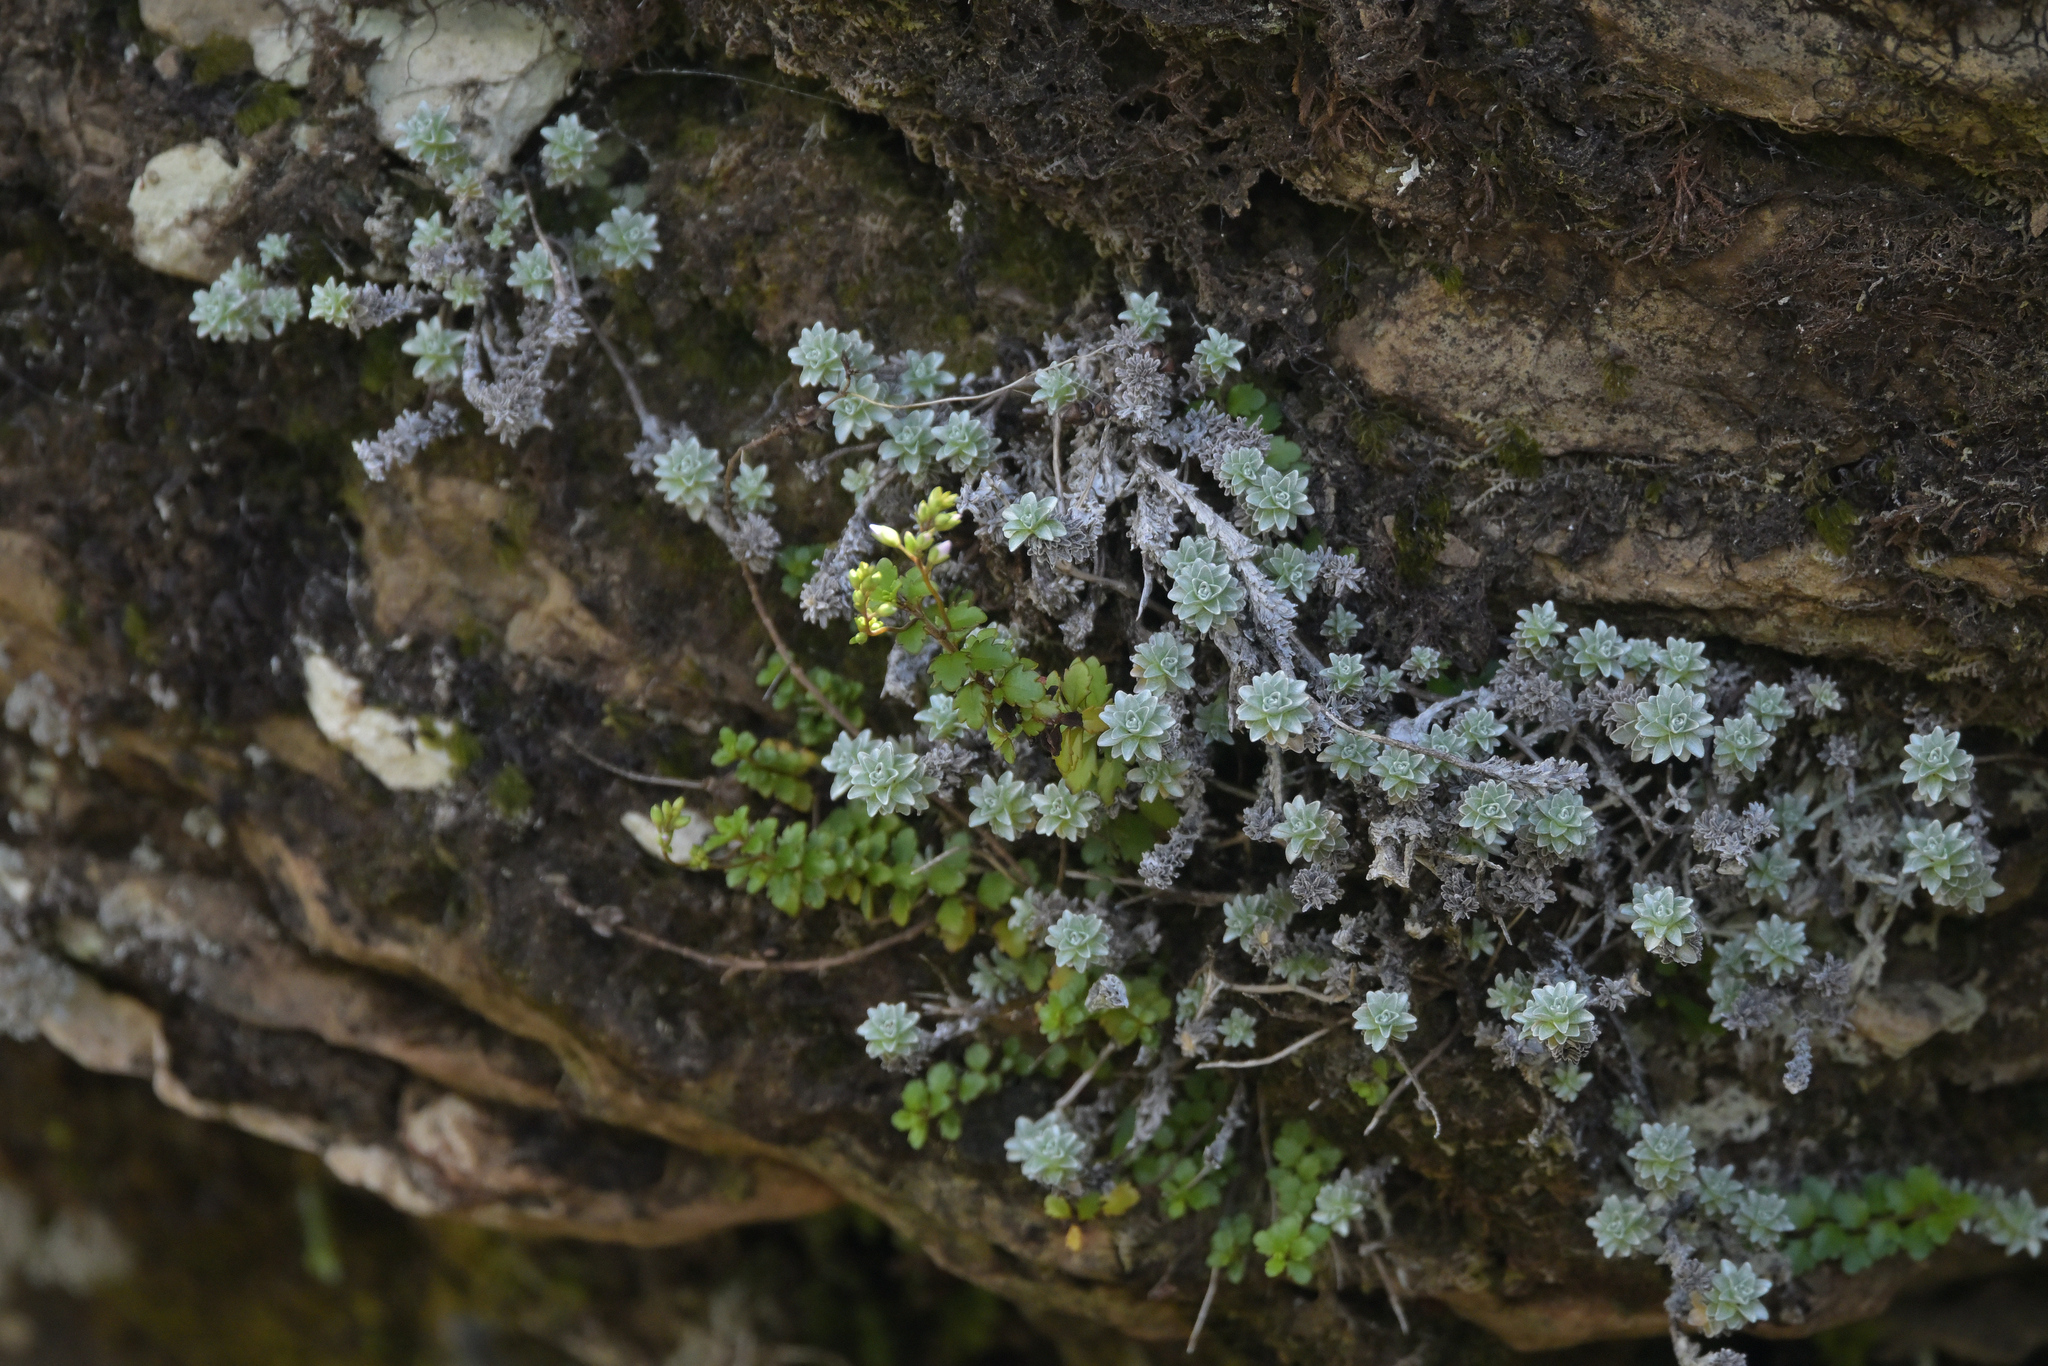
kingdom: Plantae
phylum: Tracheophyta
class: Magnoliopsida
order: Lamiales
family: Plantaginaceae
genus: Veronica
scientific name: Veronica lyallii
